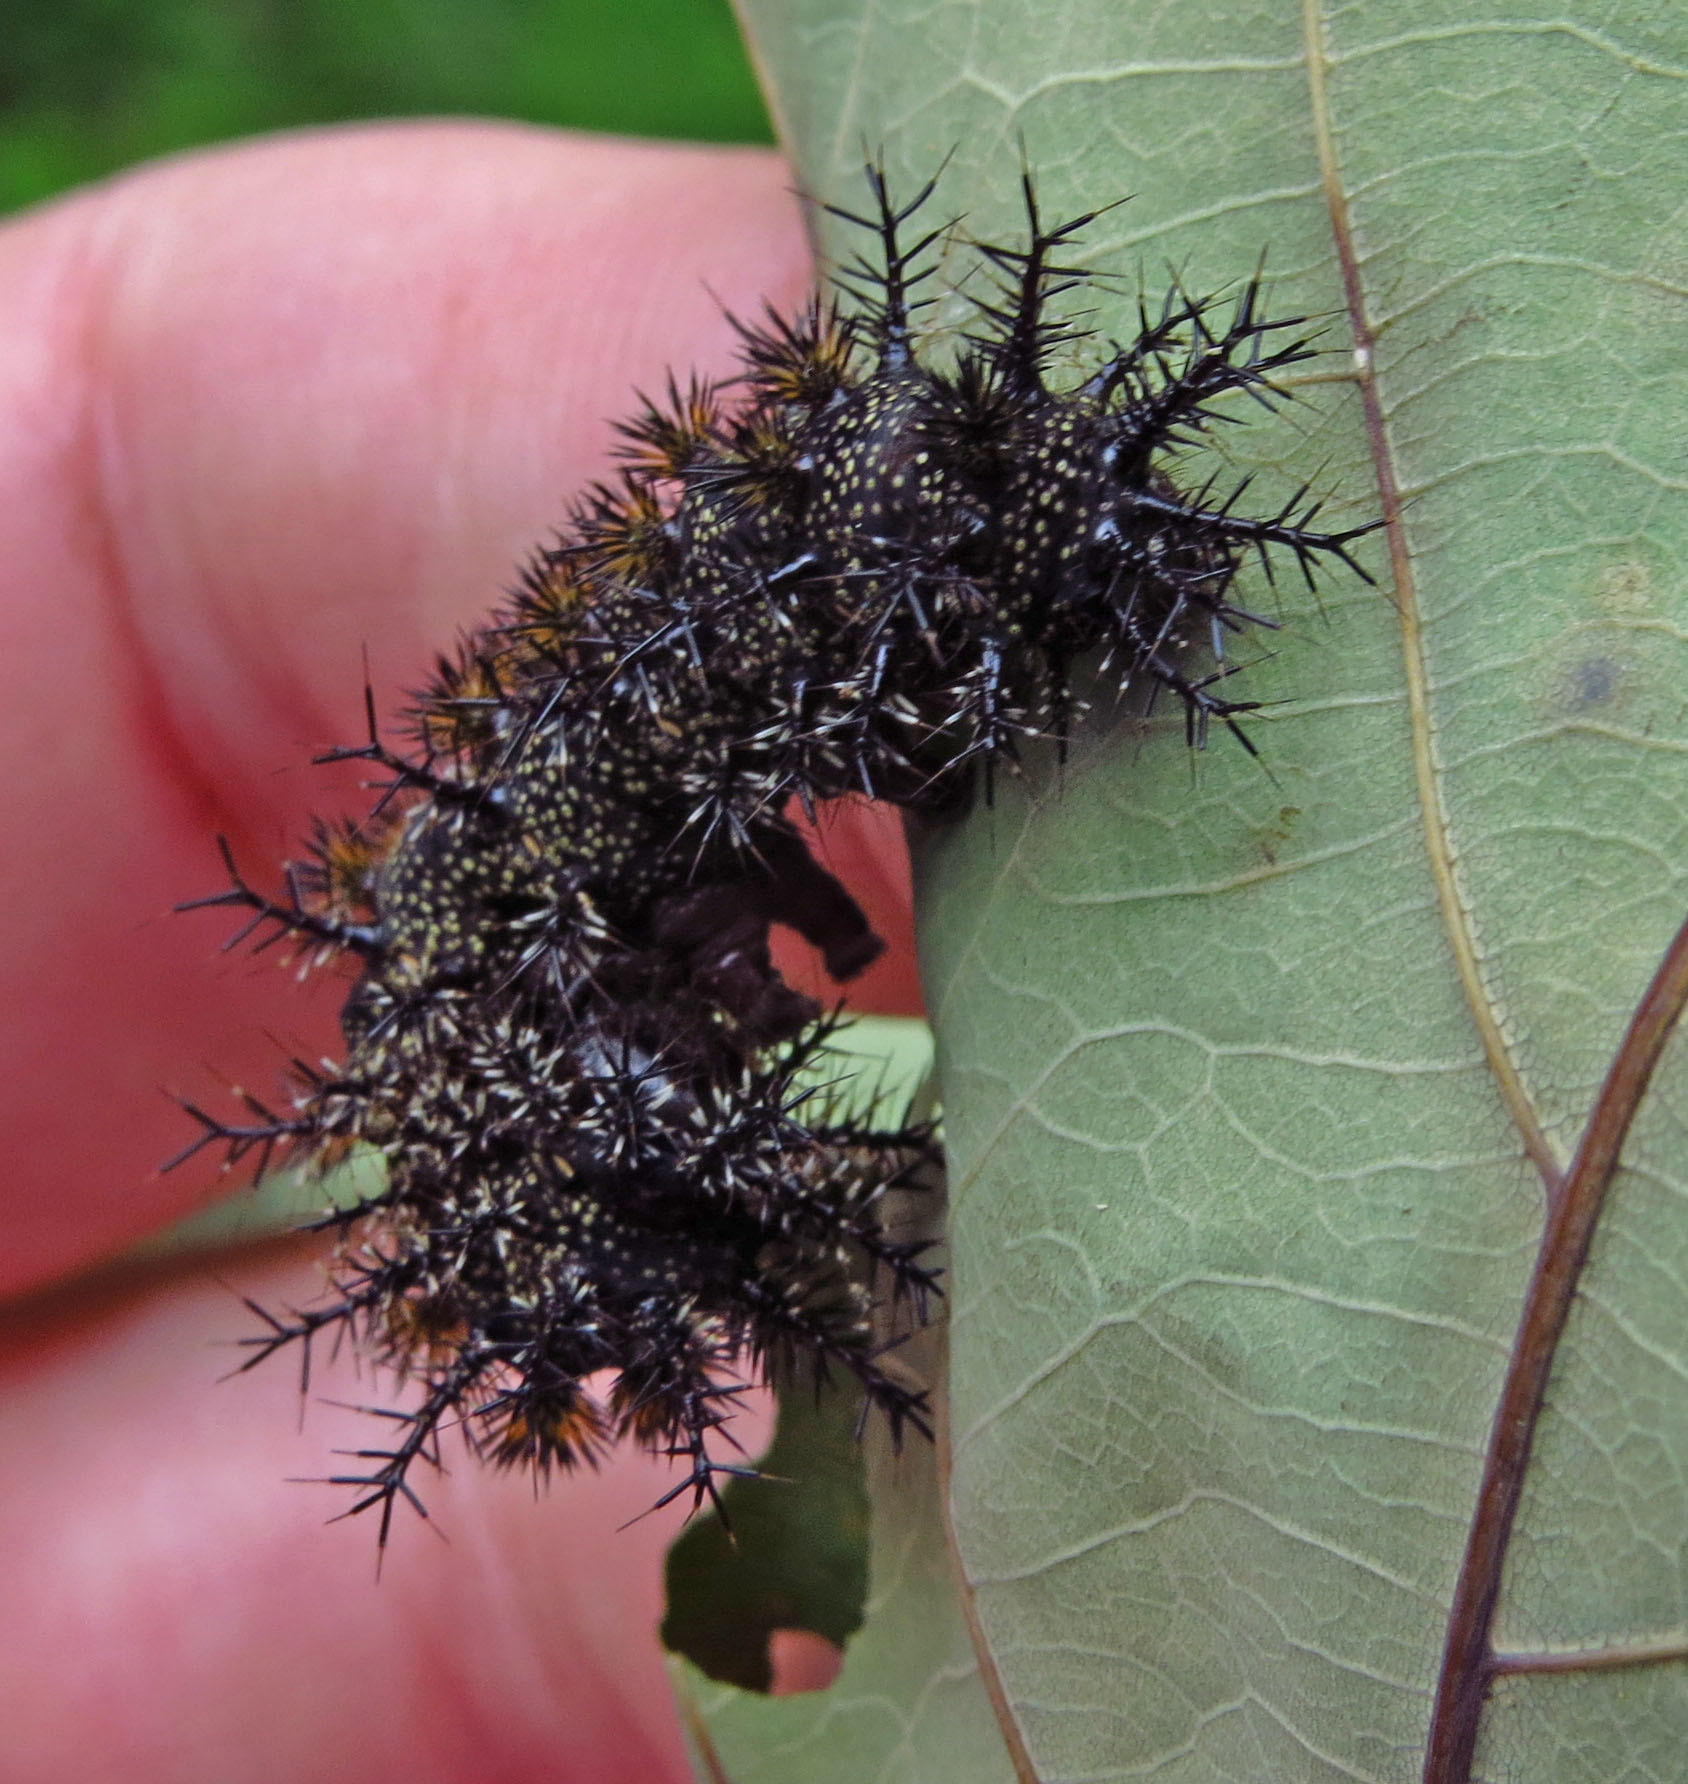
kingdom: Animalia
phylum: Arthropoda
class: Insecta
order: Lepidoptera
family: Saturniidae
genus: Hemileuca
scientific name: Hemileuca maia
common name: Eastern buckmoth
